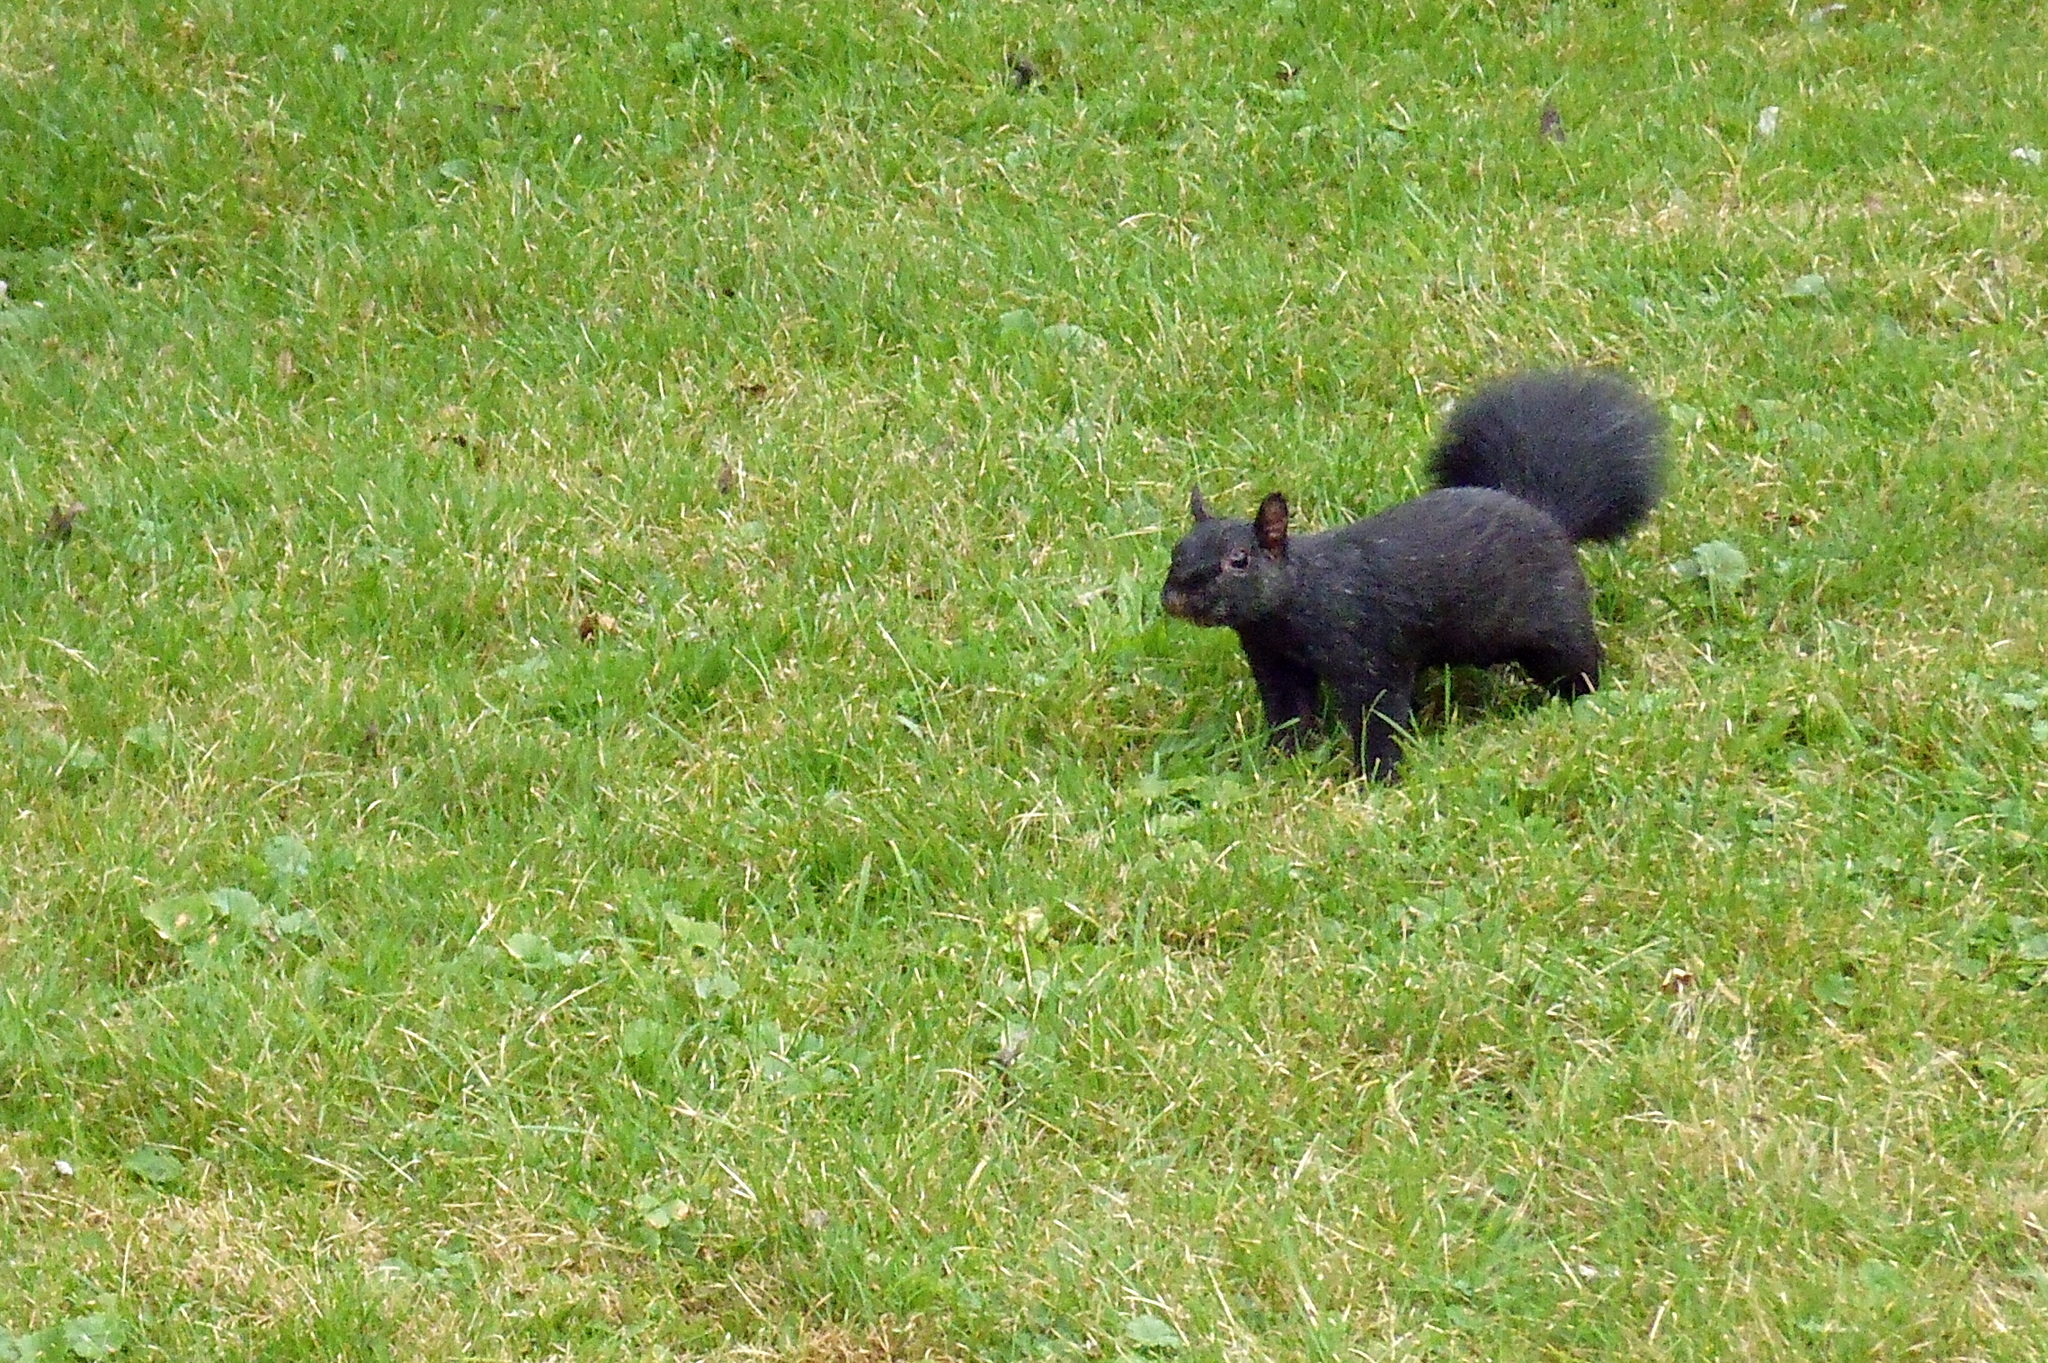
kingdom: Animalia
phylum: Chordata
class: Mammalia
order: Rodentia
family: Sciuridae
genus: Sciurus
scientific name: Sciurus carolinensis
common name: Eastern gray squirrel
